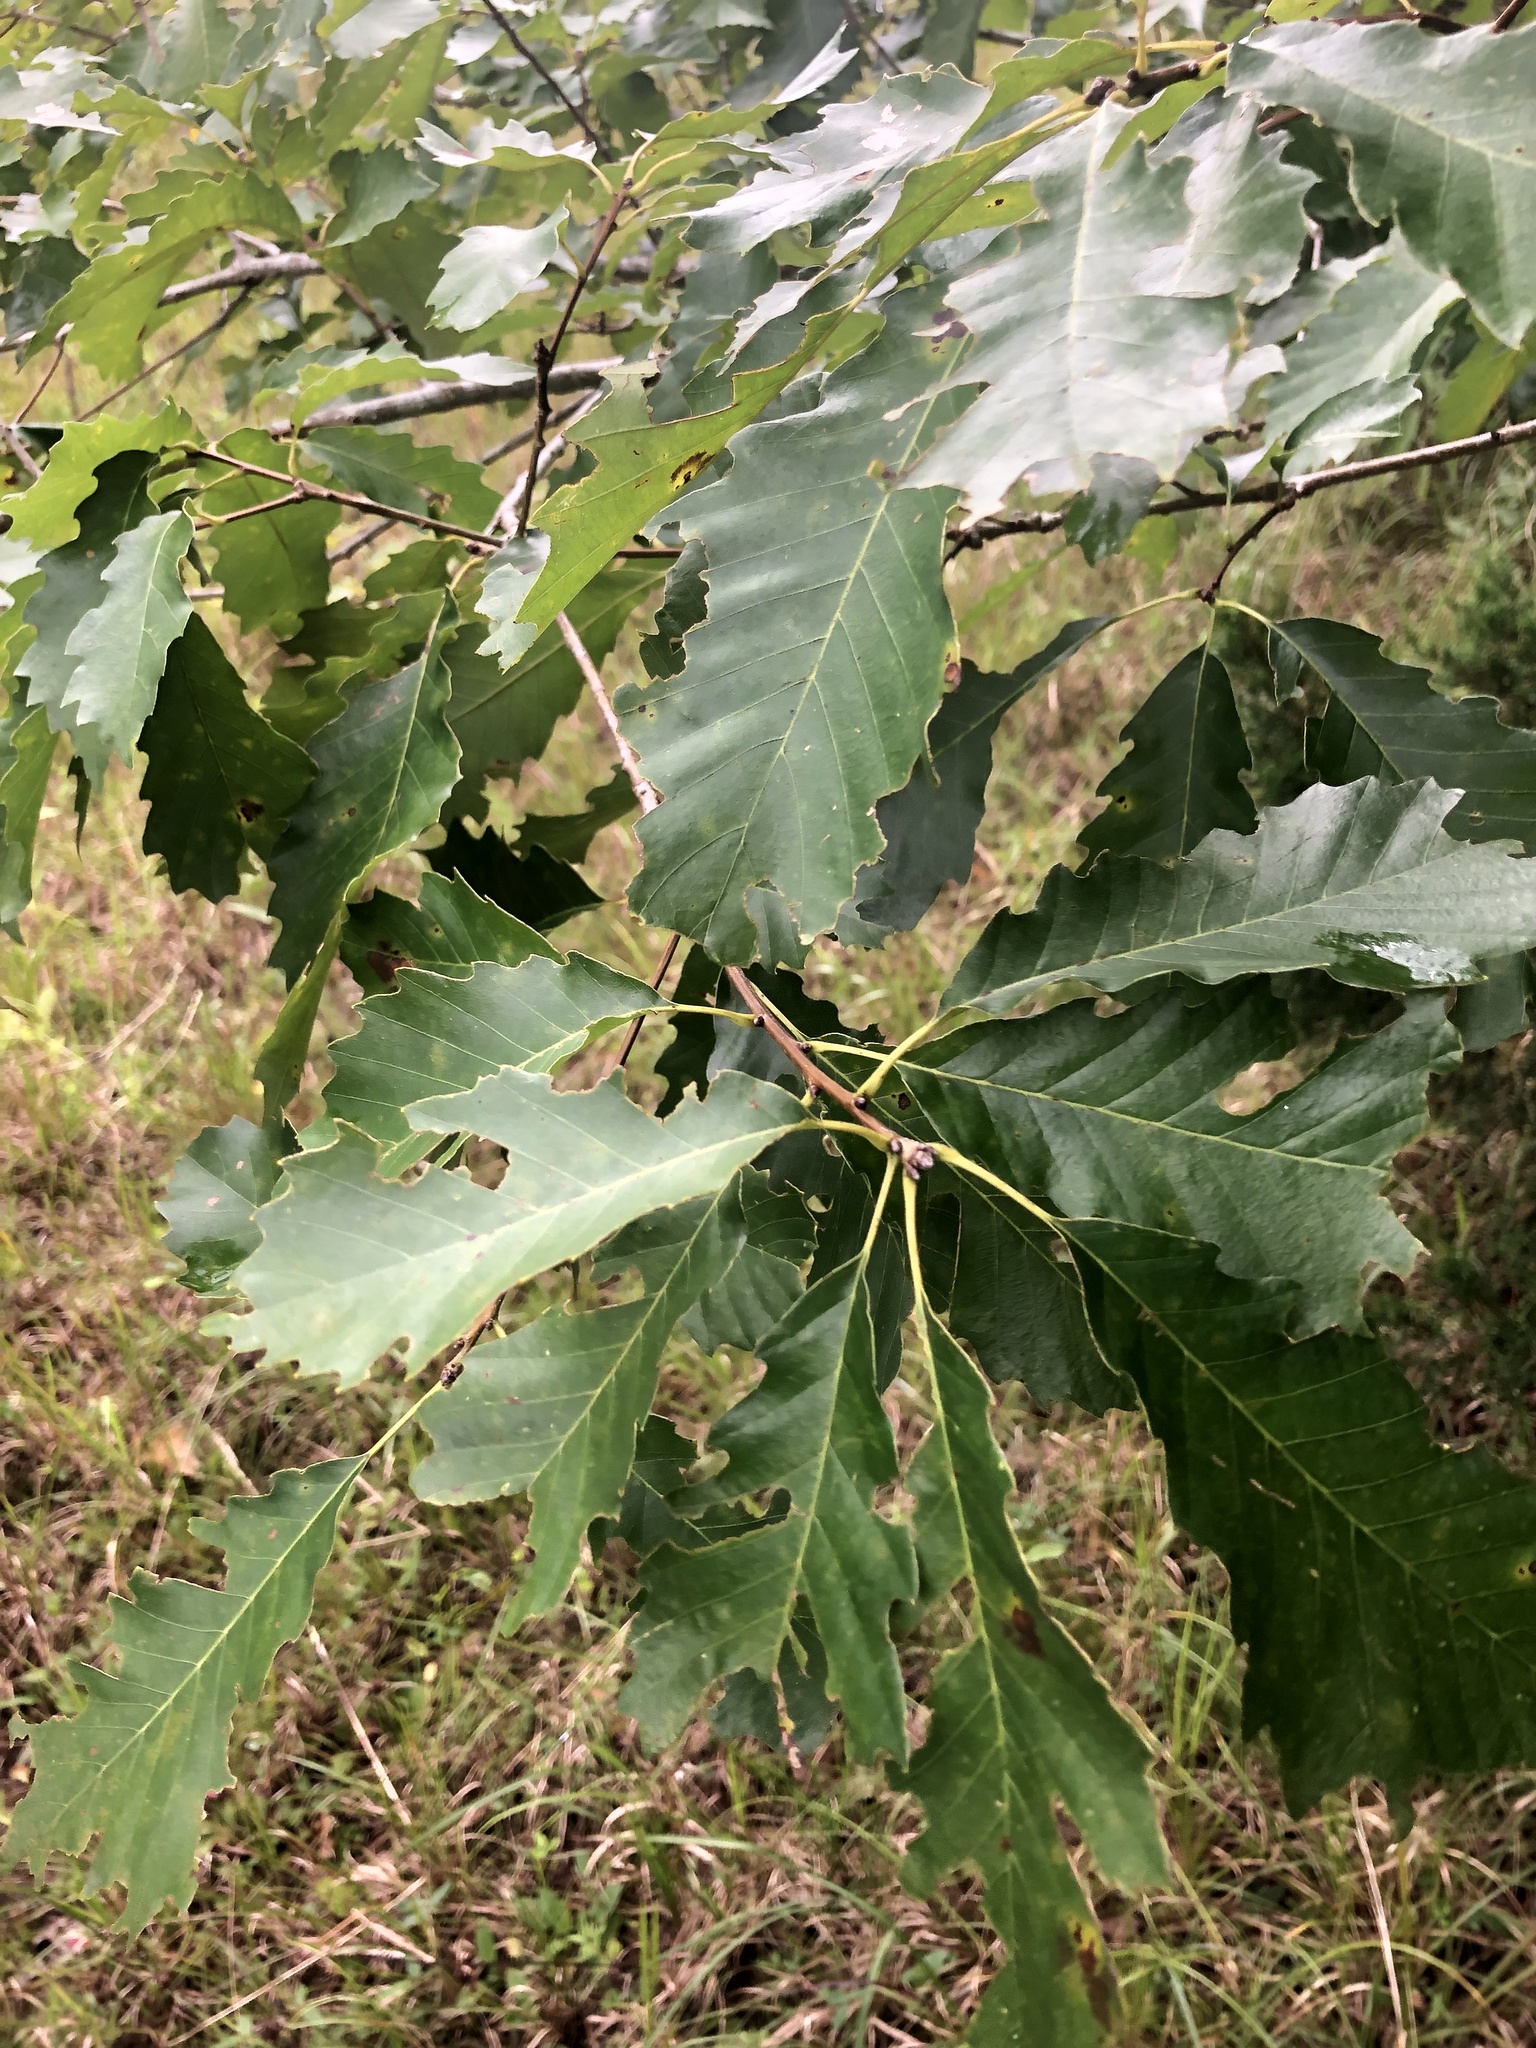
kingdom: Plantae
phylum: Tracheophyta
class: Magnoliopsida
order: Fagales
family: Fagaceae
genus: Quercus
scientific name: Quercus muehlenbergii
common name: Chinkapin oak
